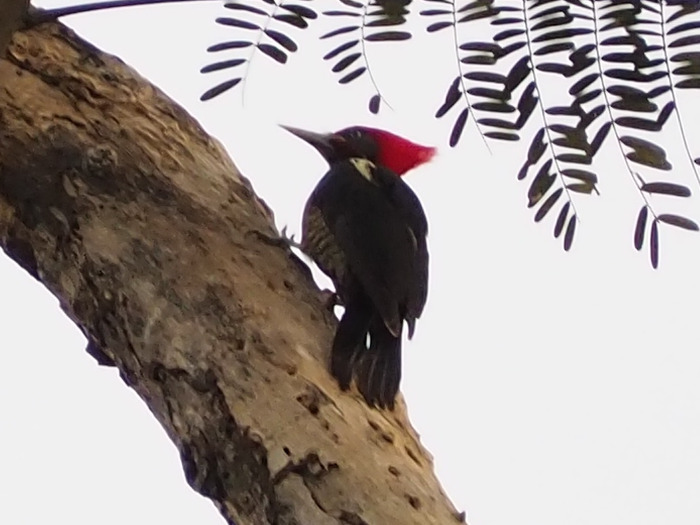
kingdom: Animalia
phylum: Chordata
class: Aves
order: Piciformes
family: Picidae
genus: Dryocopus
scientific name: Dryocopus lineatus
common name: Lineated woodpecker
